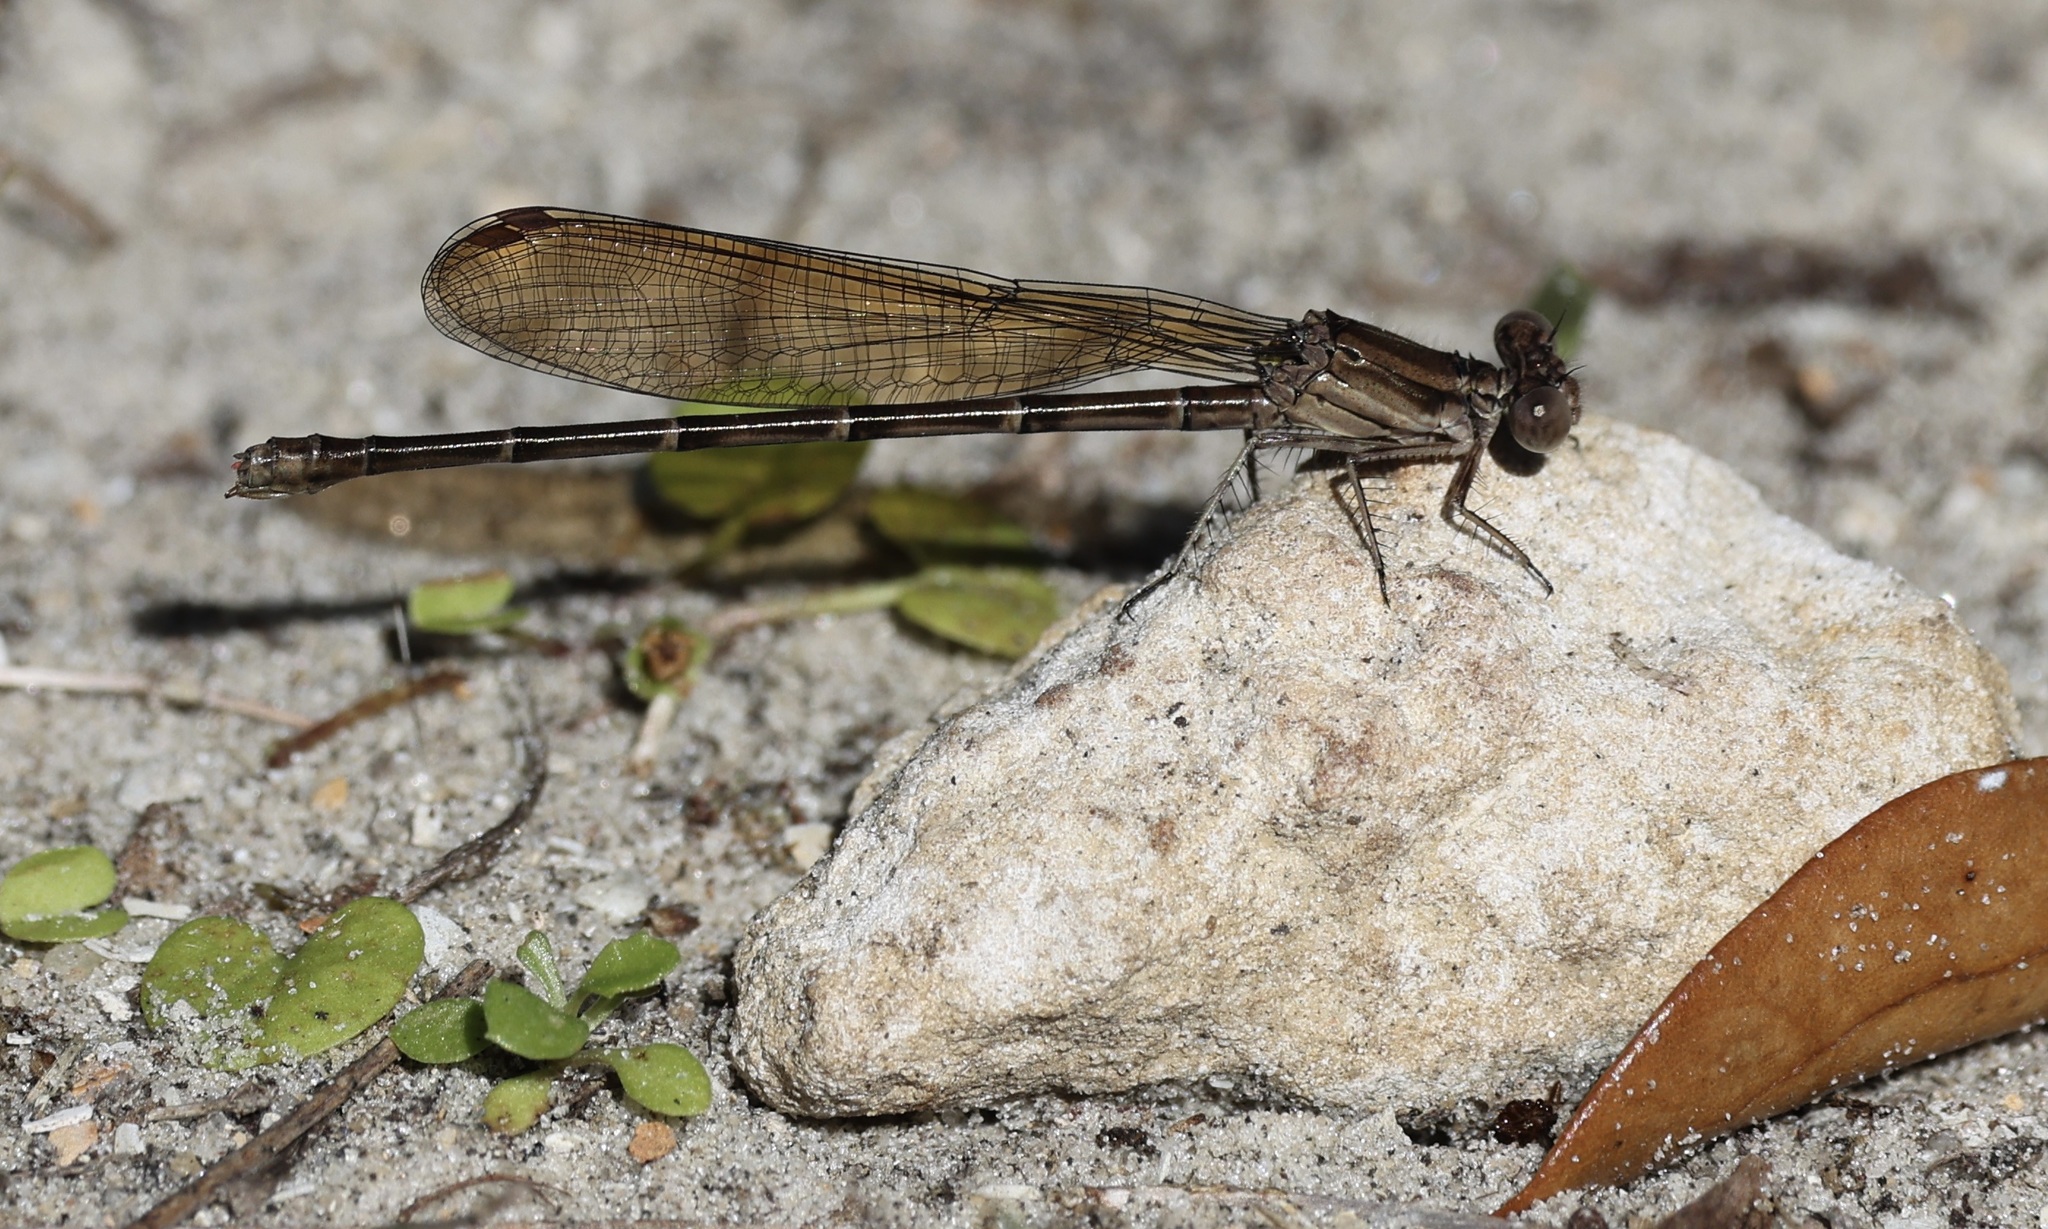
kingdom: Animalia
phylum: Arthropoda
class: Insecta
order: Odonata
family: Coenagrionidae
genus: Argia
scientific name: Argia sedula
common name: Blue-ringed dancer
